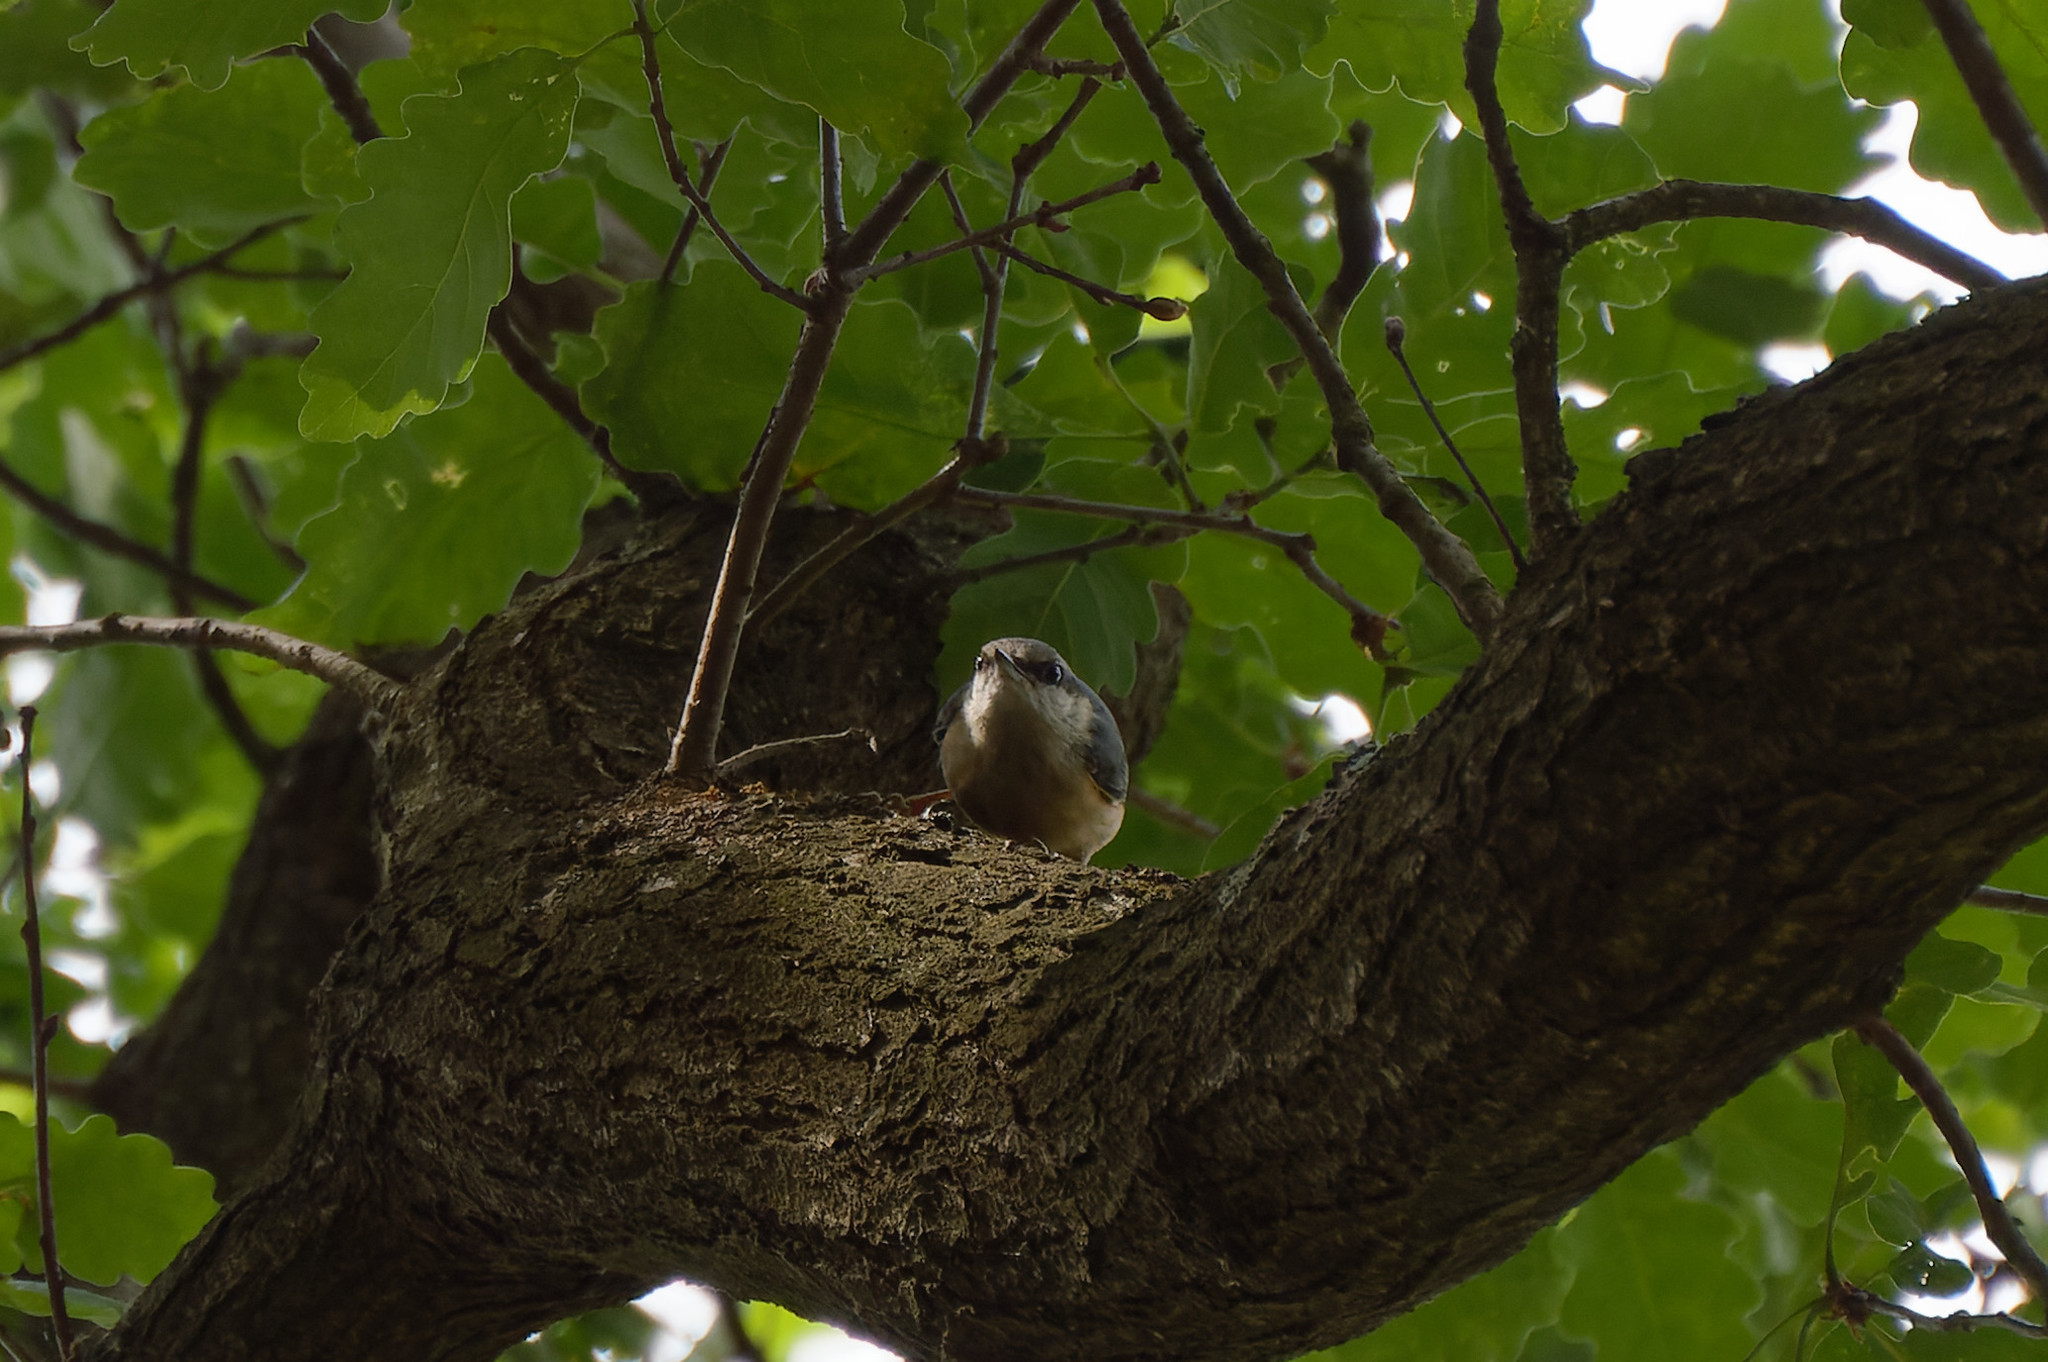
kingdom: Animalia
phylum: Chordata
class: Aves
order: Passeriformes
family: Sittidae
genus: Sitta
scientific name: Sitta europaea
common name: Eurasian nuthatch
